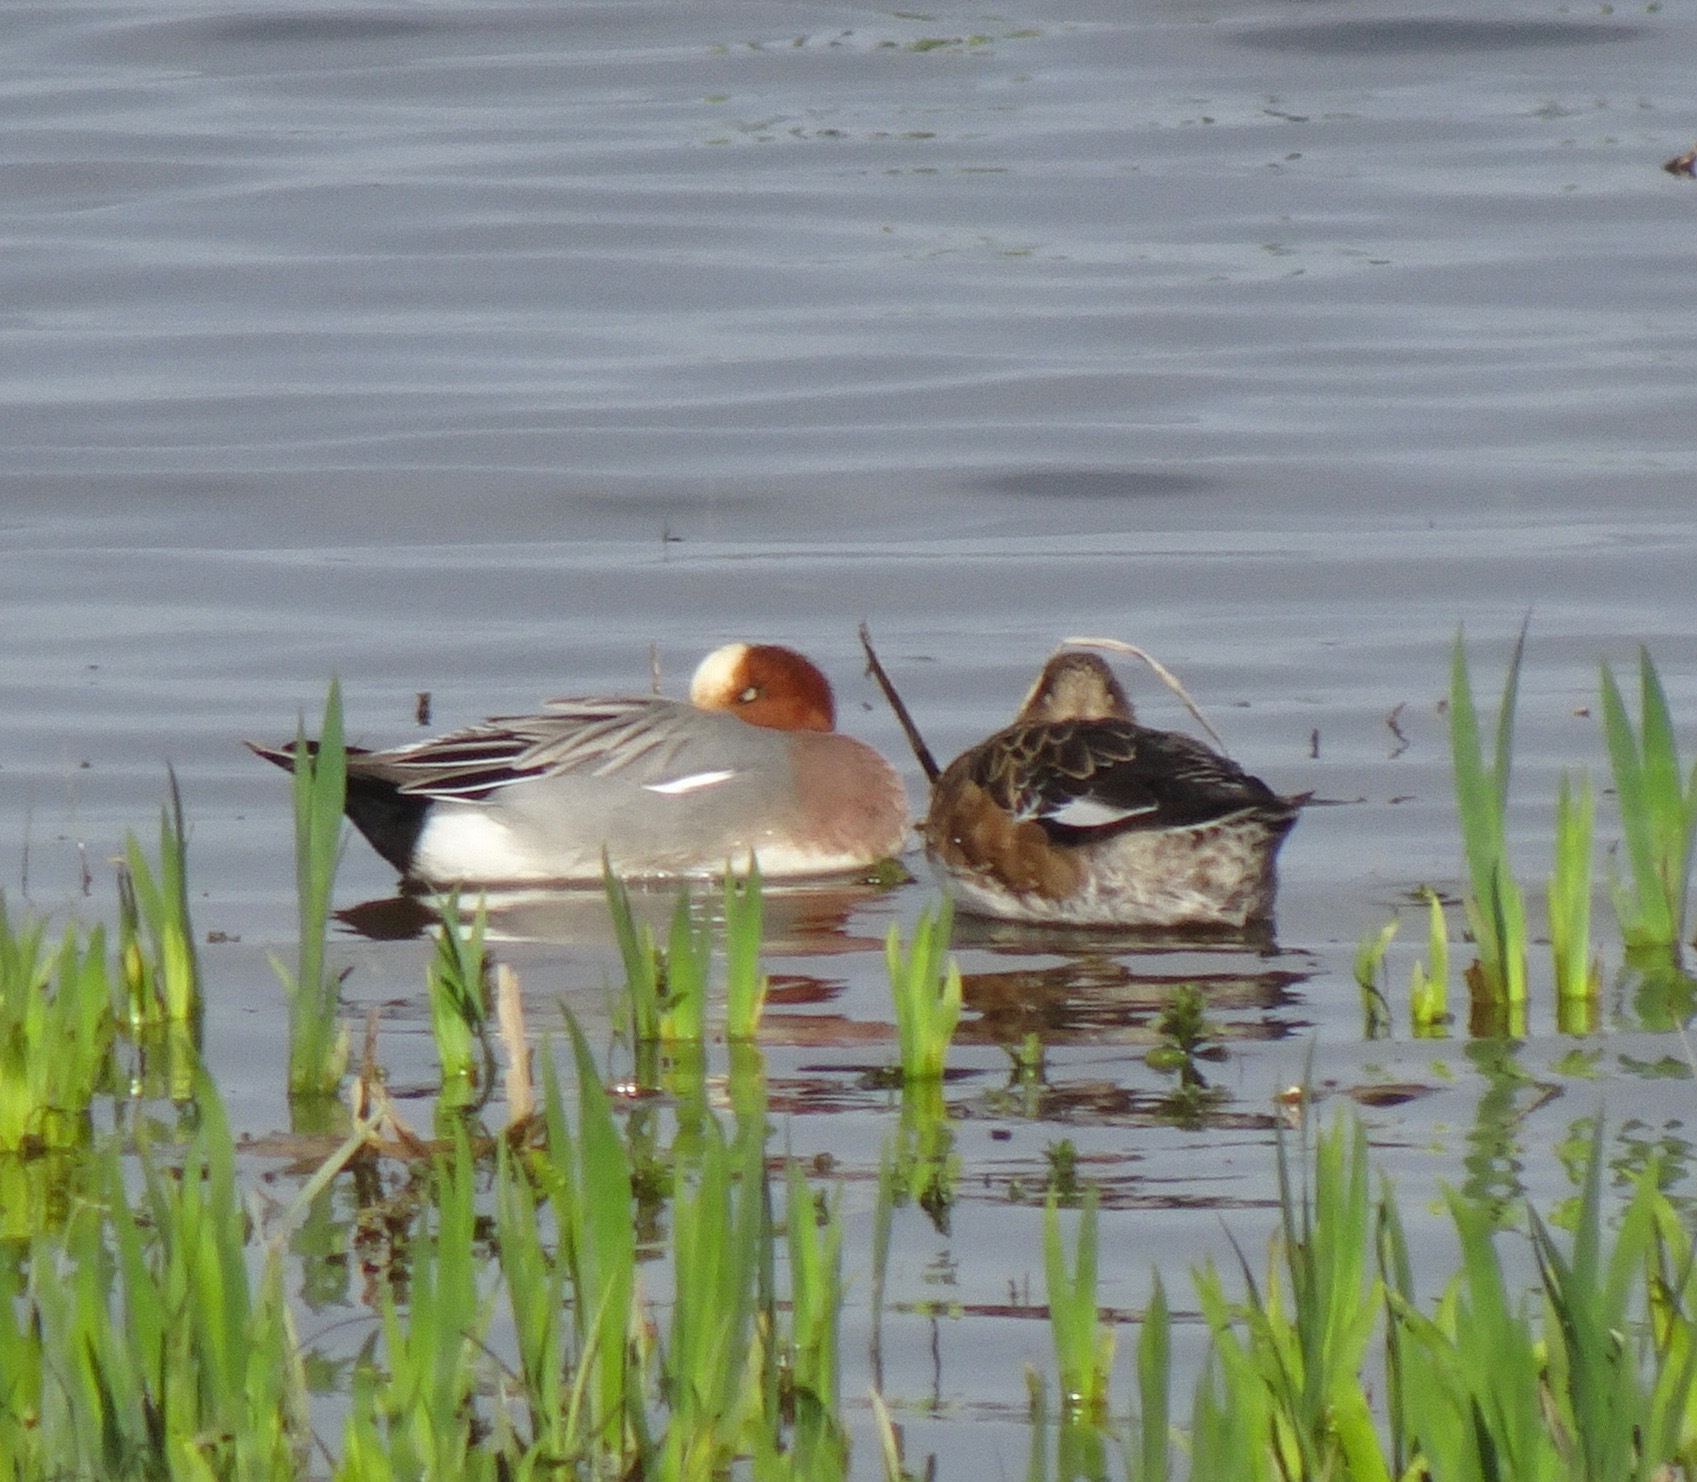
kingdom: Animalia
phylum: Chordata
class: Aves
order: Anseriformes
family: Anatidae
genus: Mareca
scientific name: Mareca penelope
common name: Eurasian wigeon
